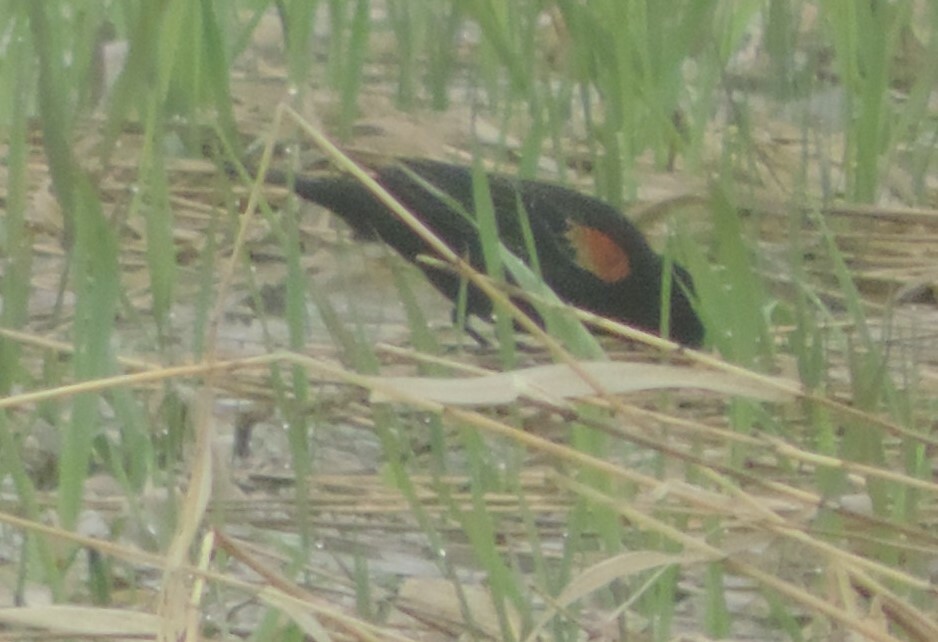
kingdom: Animalia
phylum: Chordata
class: Aves
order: Passeriformes
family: Icteridae
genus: Agelaius
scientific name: Agelaius phoeniceus
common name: Red-winged blackbird
